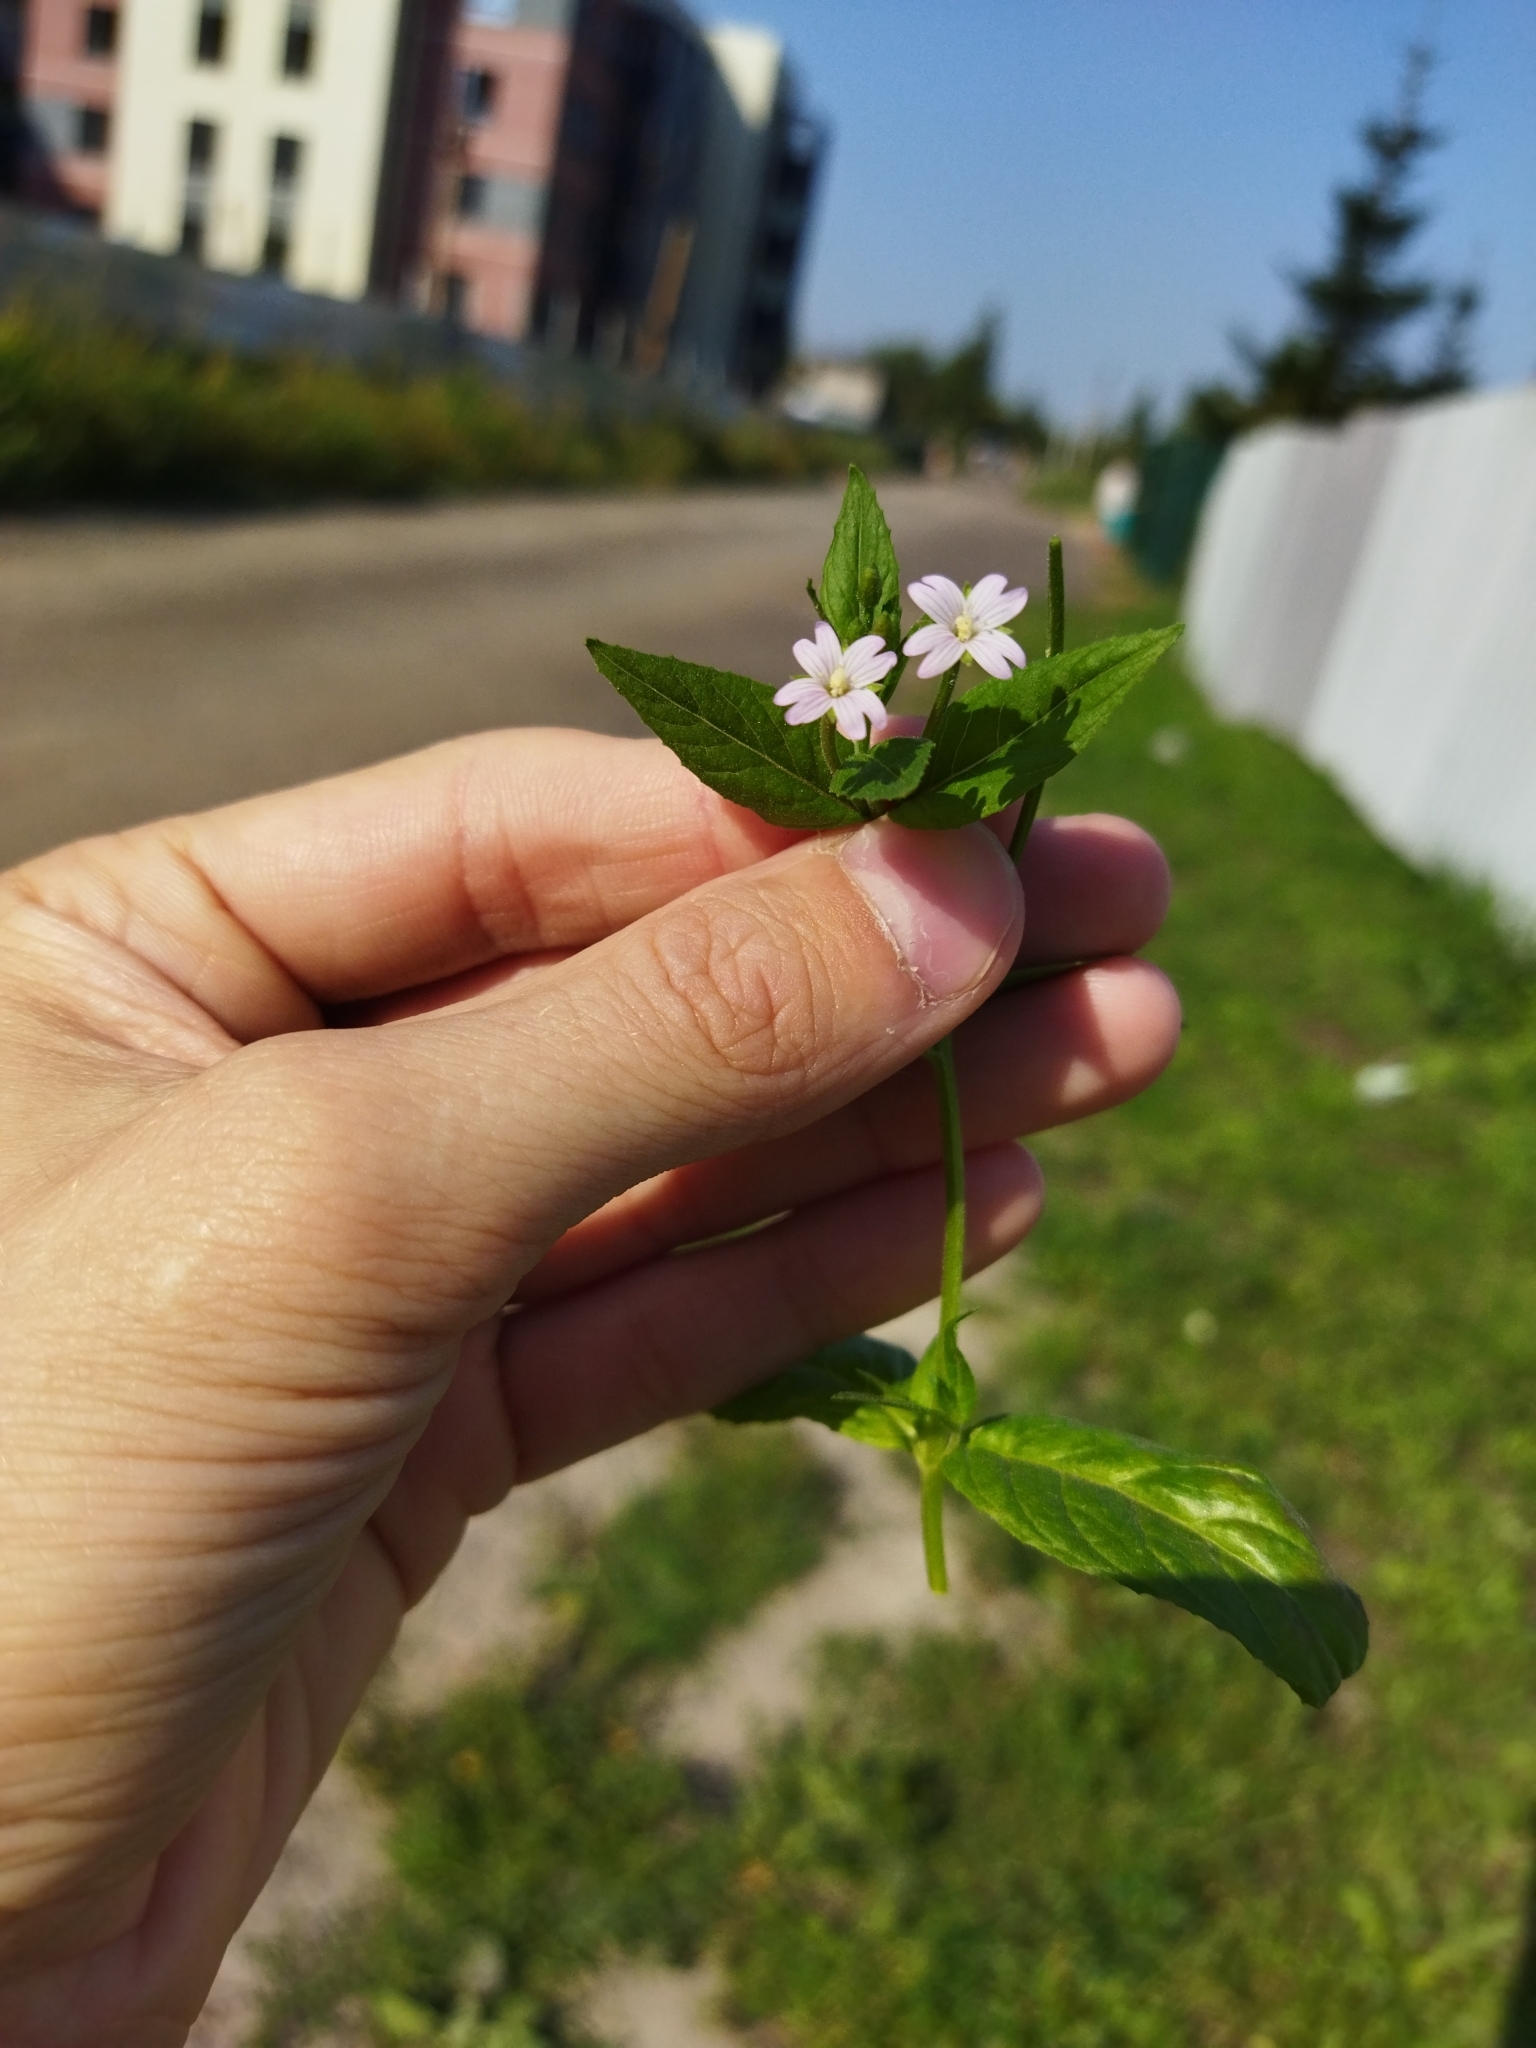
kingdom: Plantae
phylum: Tracheophyta
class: Magnoliopsida
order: Myrtales
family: Onagraceae
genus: Epilobium
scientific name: Epilobium ciliatum
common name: American willowherb
